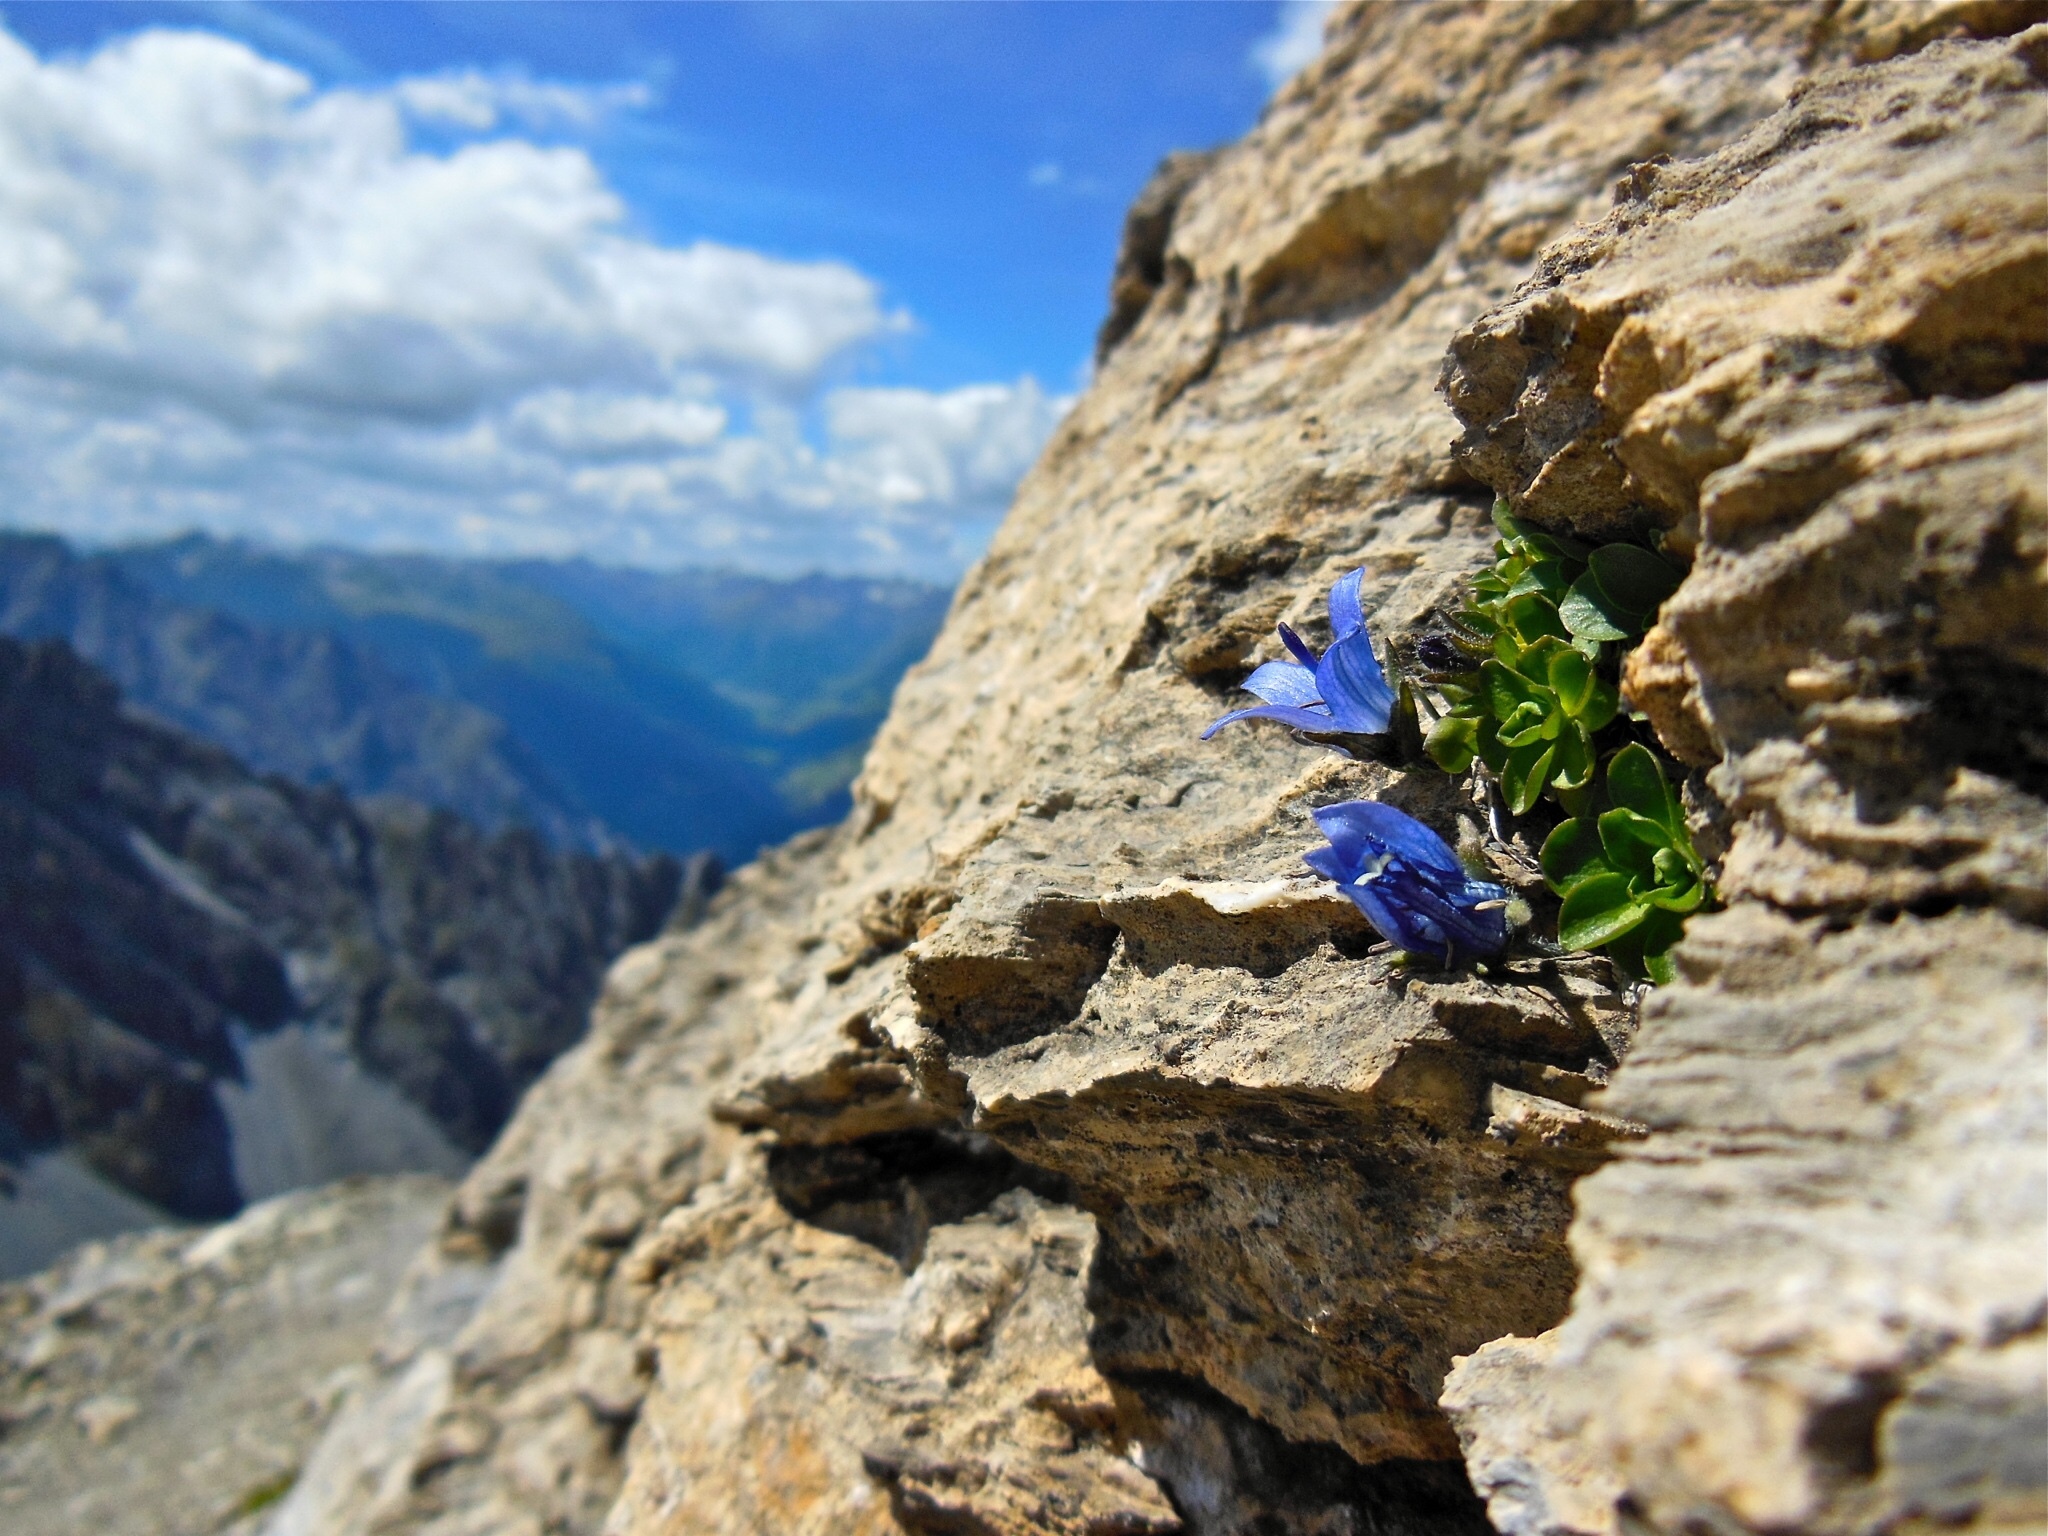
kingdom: Plantae
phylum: Tracheophyta
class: Magnoliopsida
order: Asterales
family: Campanulaceae
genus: Campanula
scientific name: Campanula cenisia
